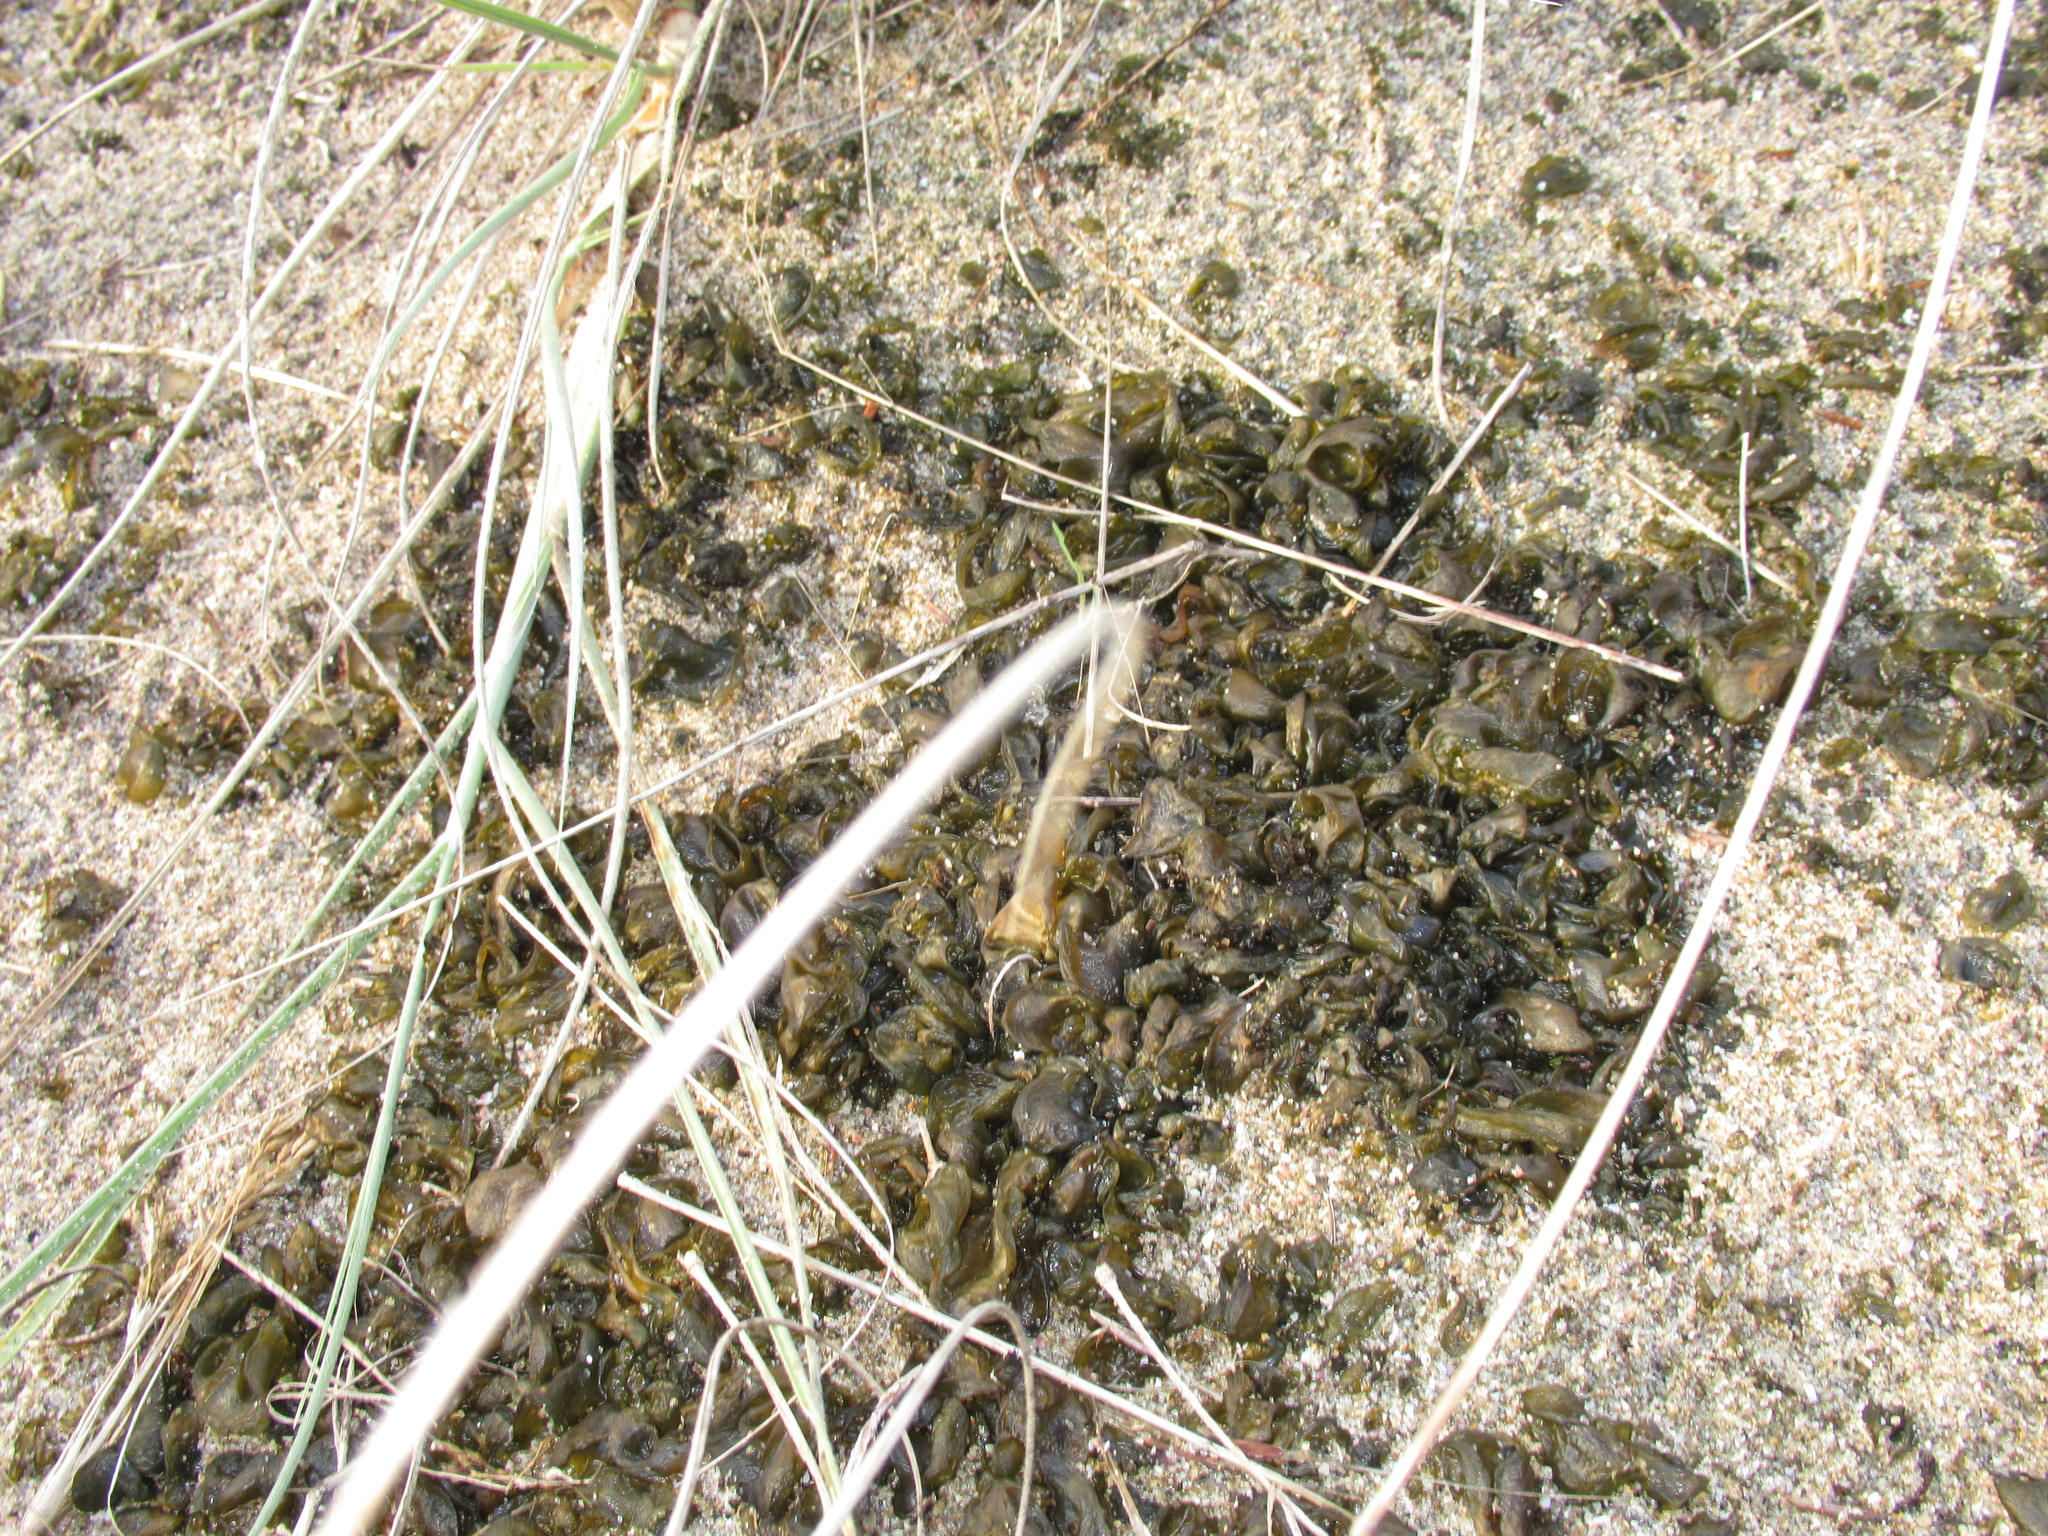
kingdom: Bacteria
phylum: Cyanobacteria
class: Cyanobacteriia
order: Cyanobacteriales
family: Nostocaceae
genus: Nostoc
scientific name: Nostoc commune
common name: Star jelly
